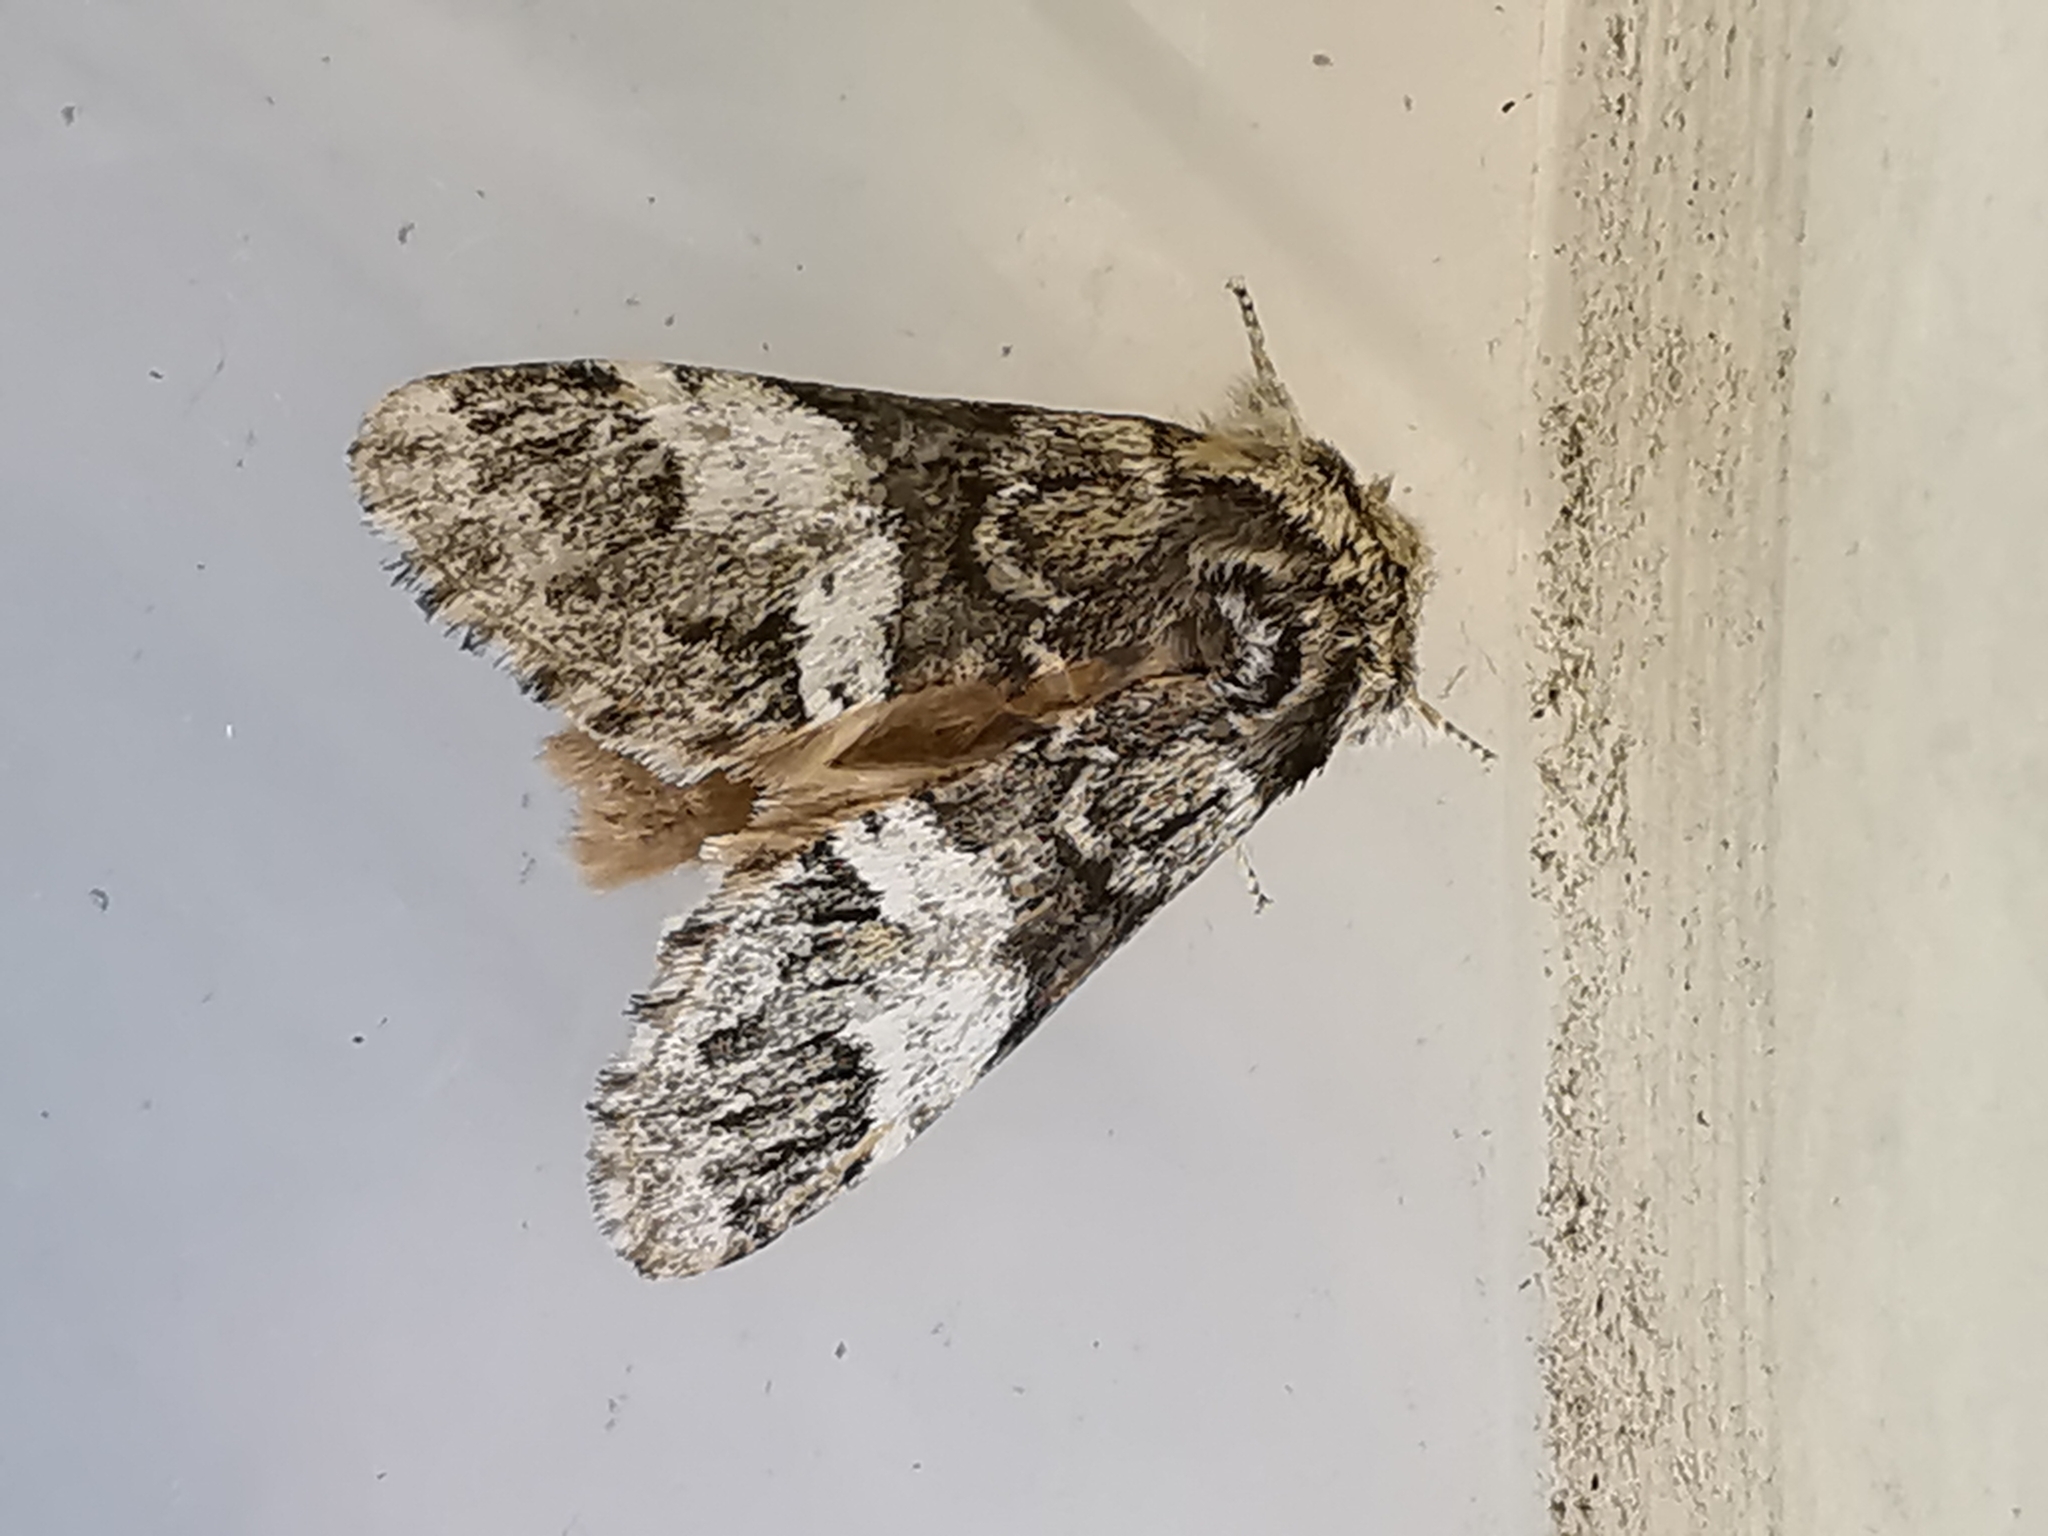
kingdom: Animalia
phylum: Arthropoda
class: Insecta
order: Lepidoptera
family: Notodontidae
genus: Drymonia
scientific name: Drymonia dodonaea
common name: Marbled brown
